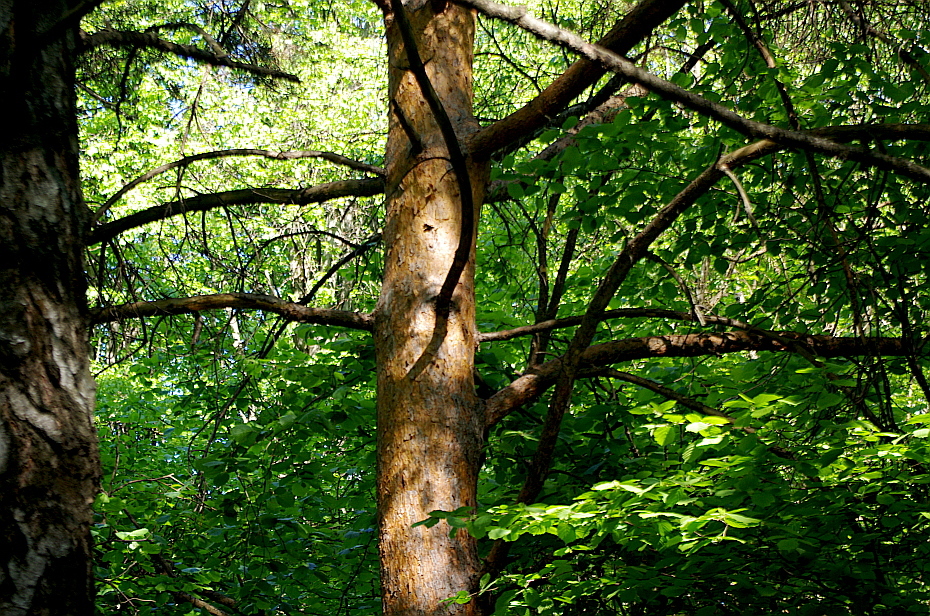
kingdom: Plantae
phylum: Tracheophyta
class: Pinopsida
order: Pinales
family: Pinaceae
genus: Pinus
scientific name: Pinus sylvestris
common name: Scots pine
